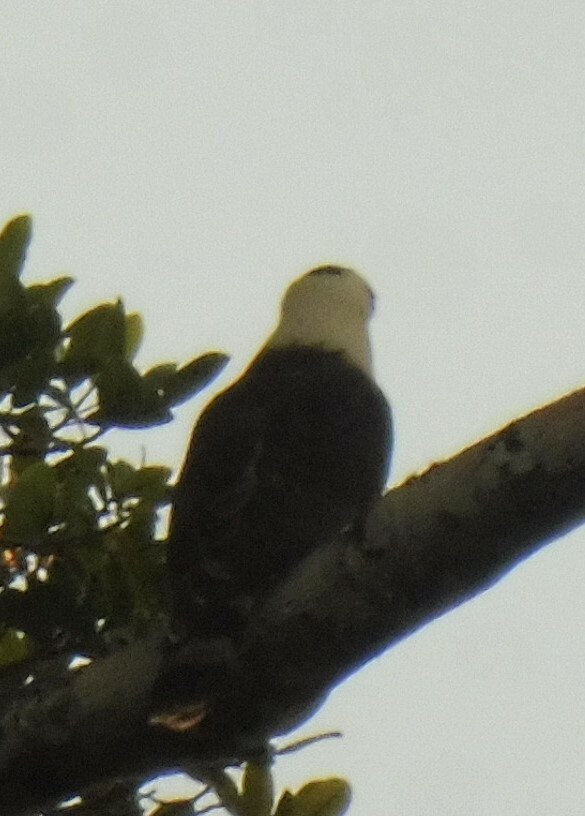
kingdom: Animalia
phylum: Chordata
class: Aves
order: Accipitriformes
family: Accipitridae
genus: Spizaetus
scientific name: Spizaetus melanoleucus
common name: Black-and-white hawk-eagle
